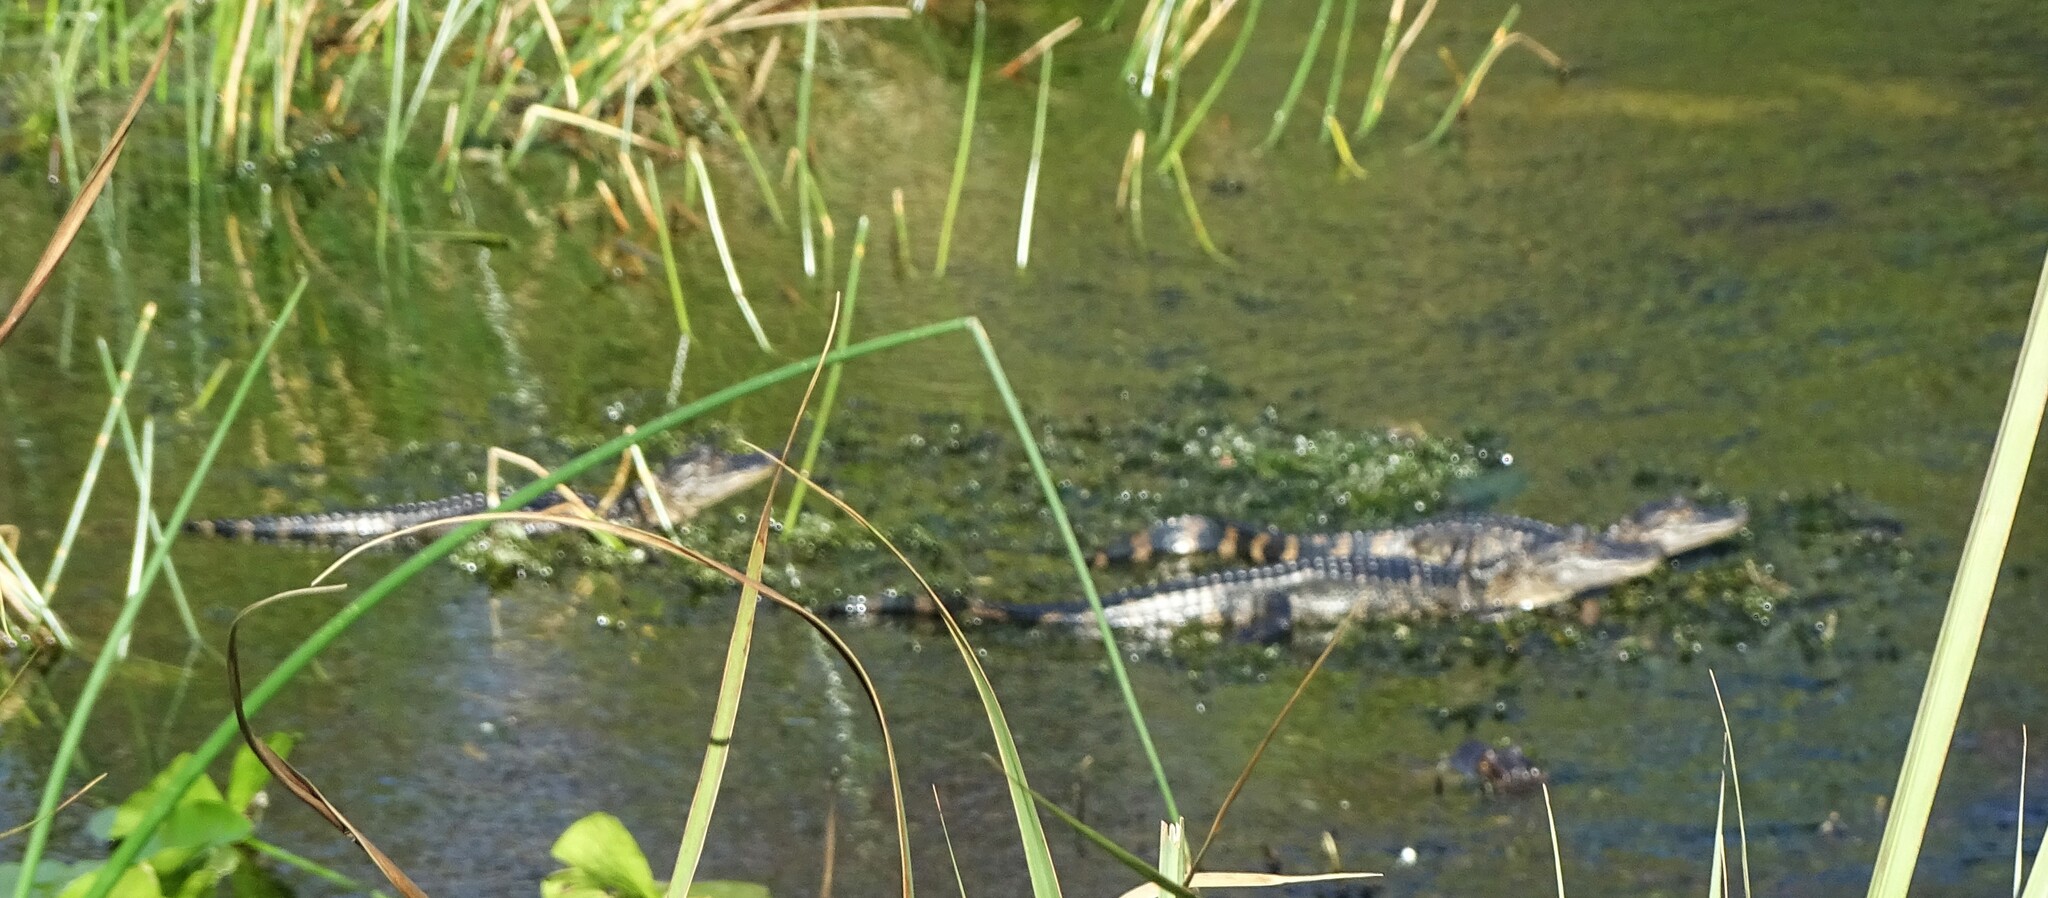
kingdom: Animalia
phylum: Chordata
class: Crocodylia
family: Alligatoridae
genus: Alligator
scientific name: Alligator mississippiensis
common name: American alligator
